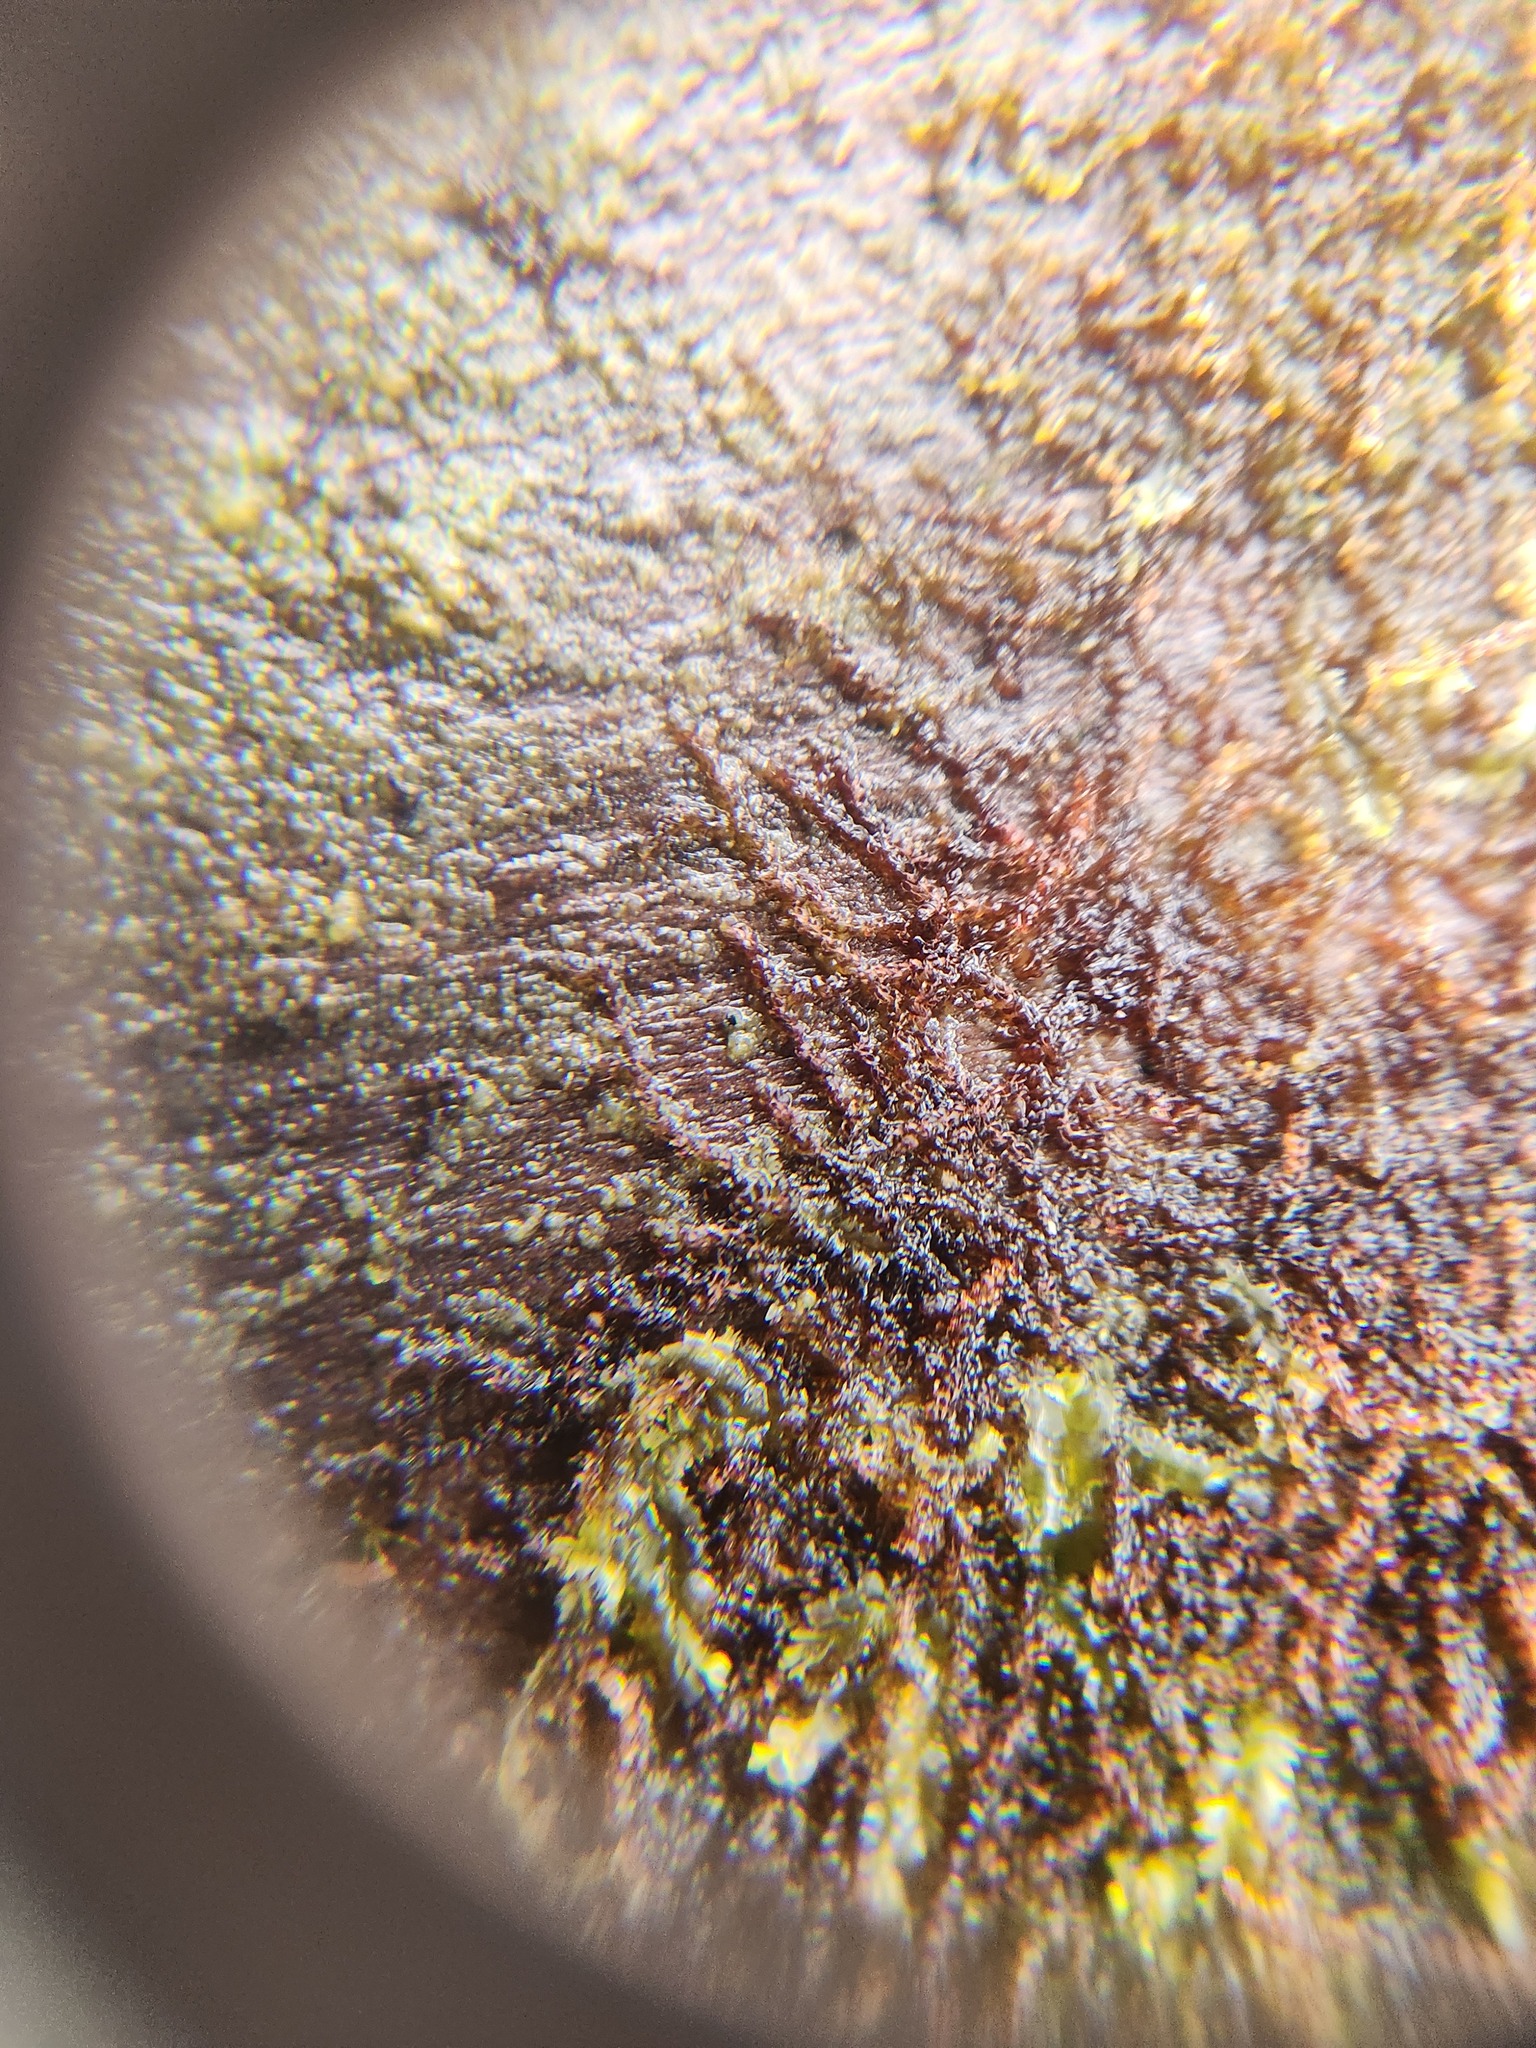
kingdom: Plantae
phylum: Marchantiophyta
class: Jungermanniopsida
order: Jungermanniales
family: Cephaloziaceae
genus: Nowellia
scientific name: Nowellia curvifolia
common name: Wood rustwort
